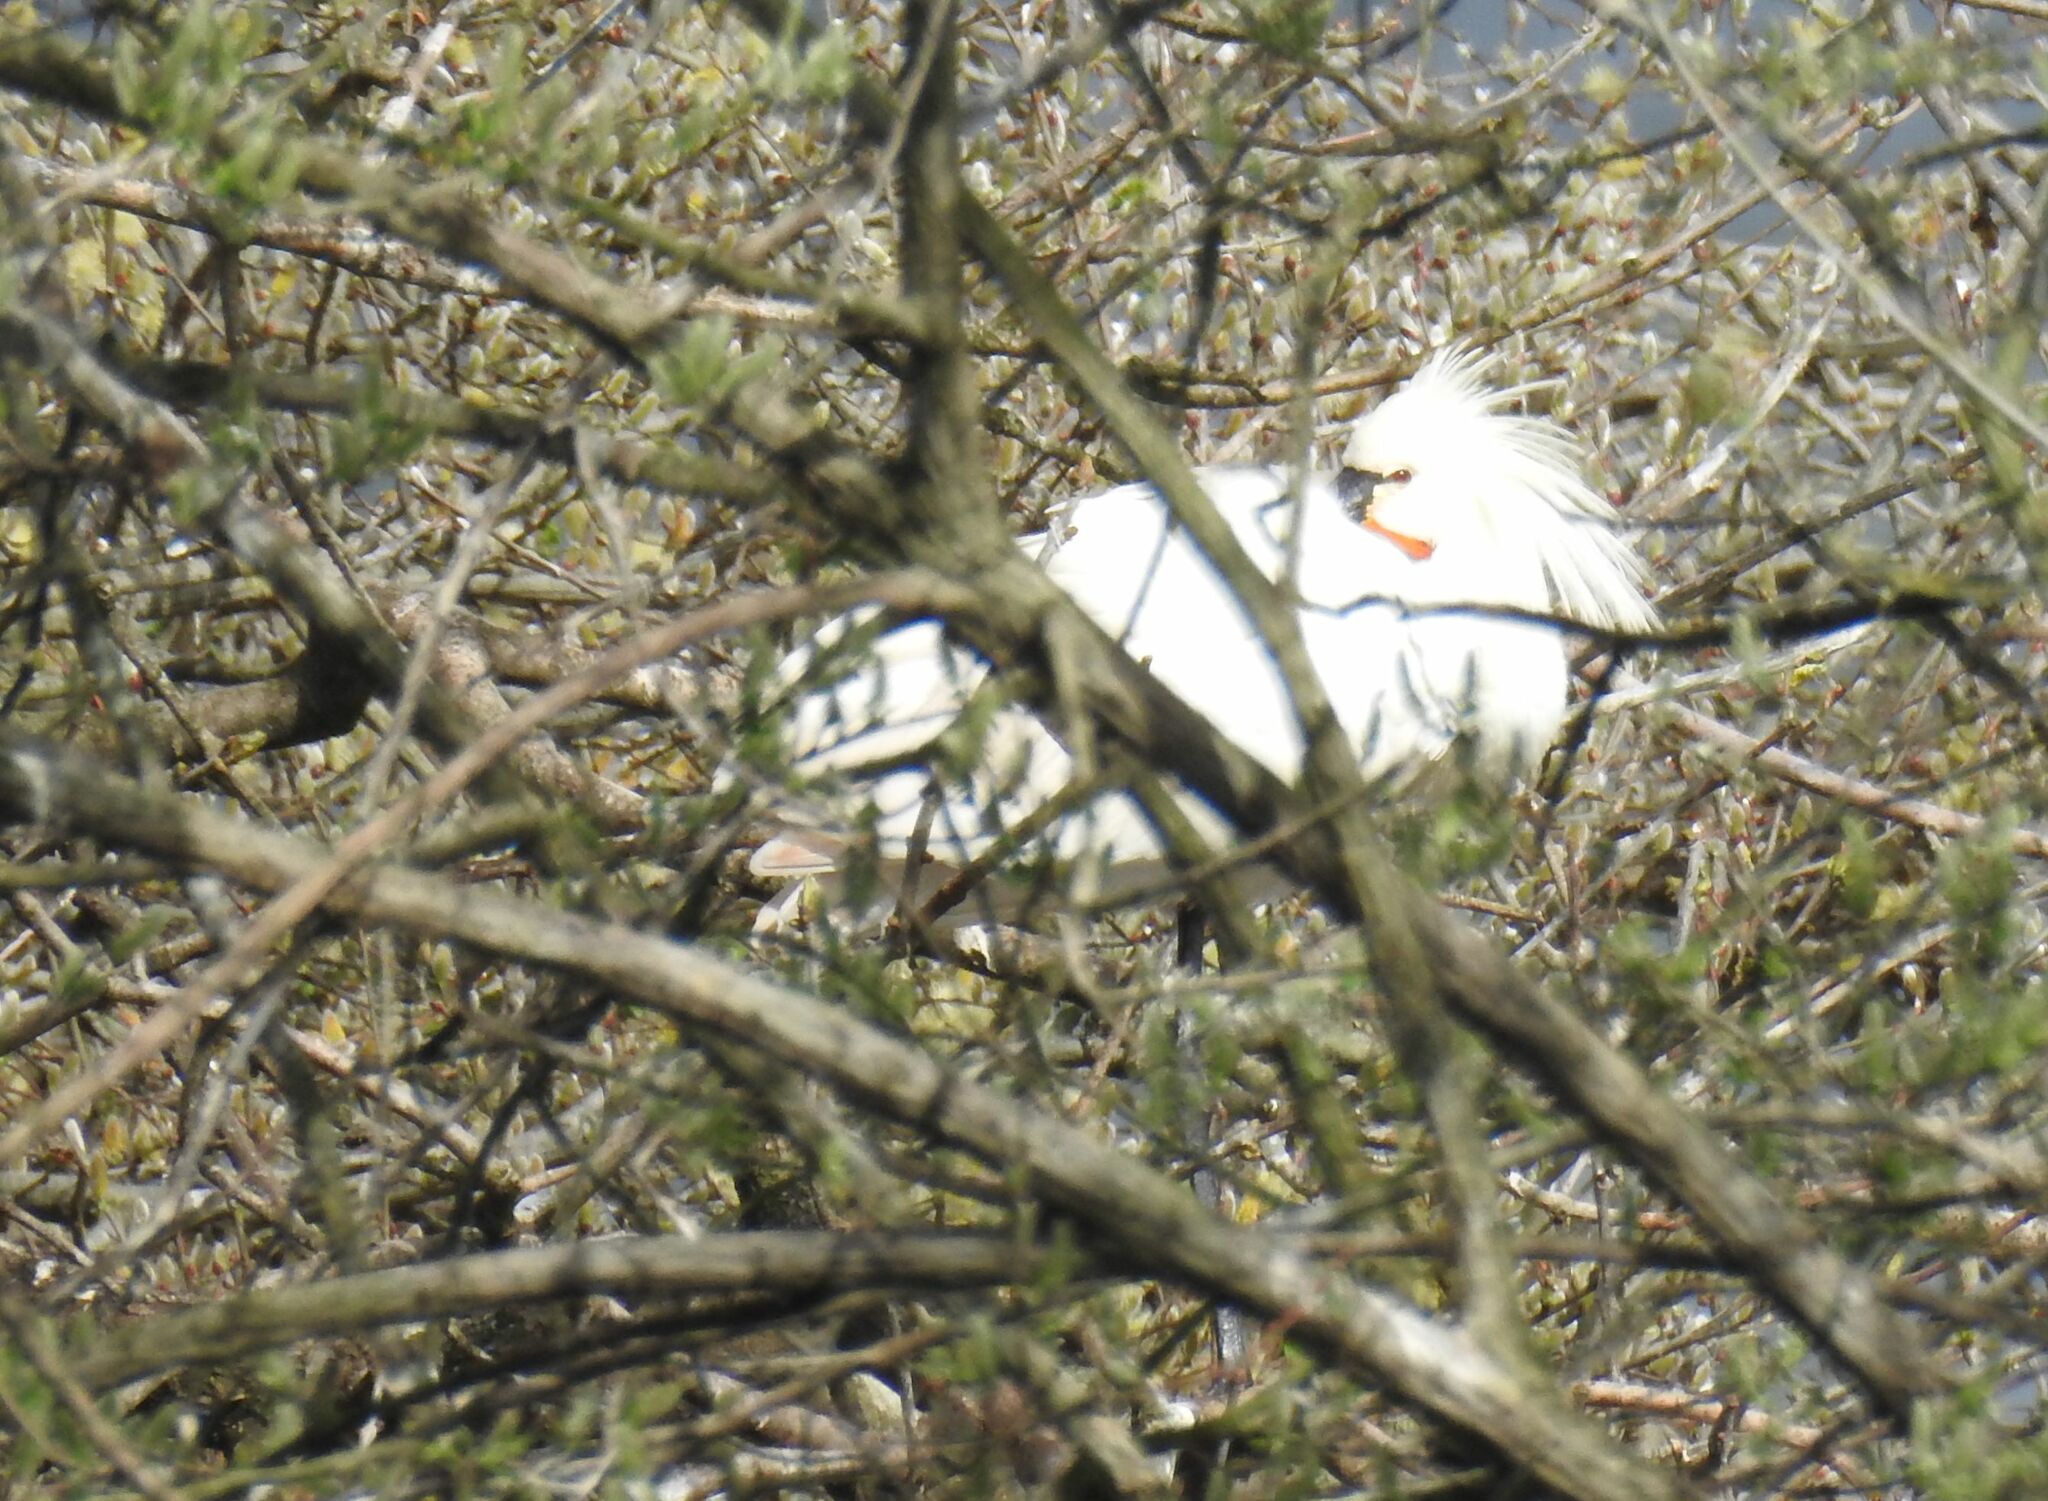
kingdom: Animalia
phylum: Chordata
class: Aves
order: Pelecaniformes
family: Threskiornithidae
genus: Platalea
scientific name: Platalea leucorodia
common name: Eurasian spoonbill
